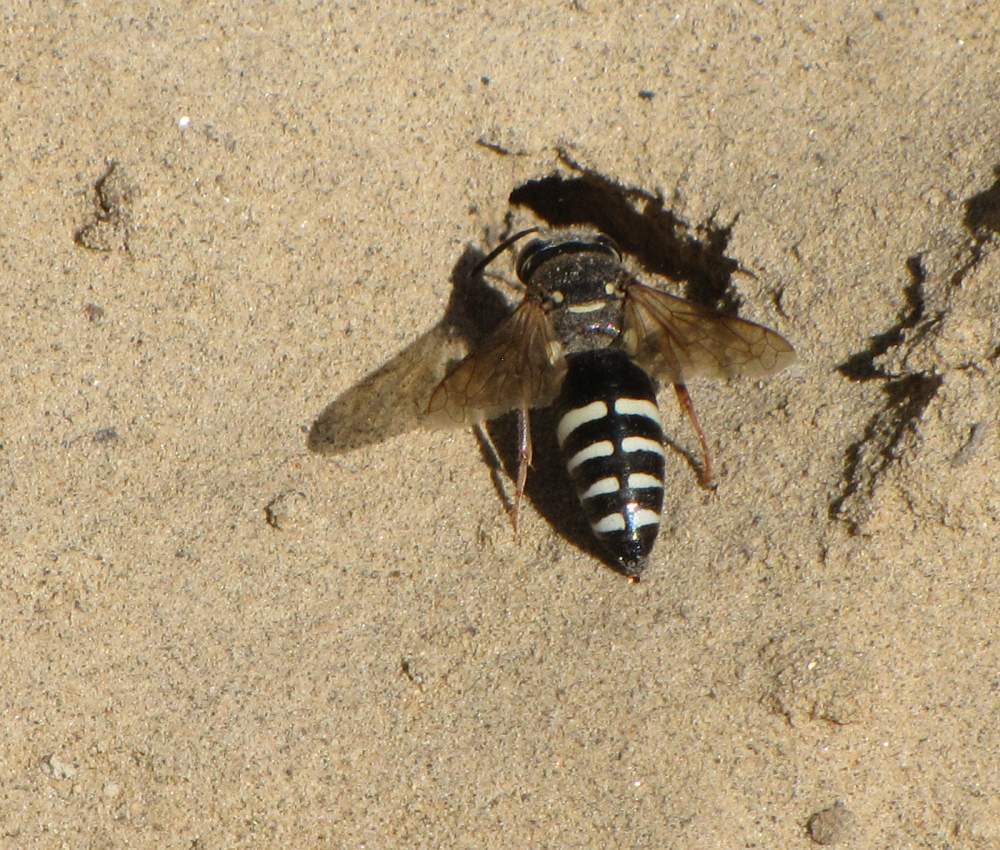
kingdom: Animalia
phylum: Arthropoda
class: Insecta
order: Hymenoptera
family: Crabronidae
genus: Bicyrtes
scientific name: Bicyrtes ventralis
